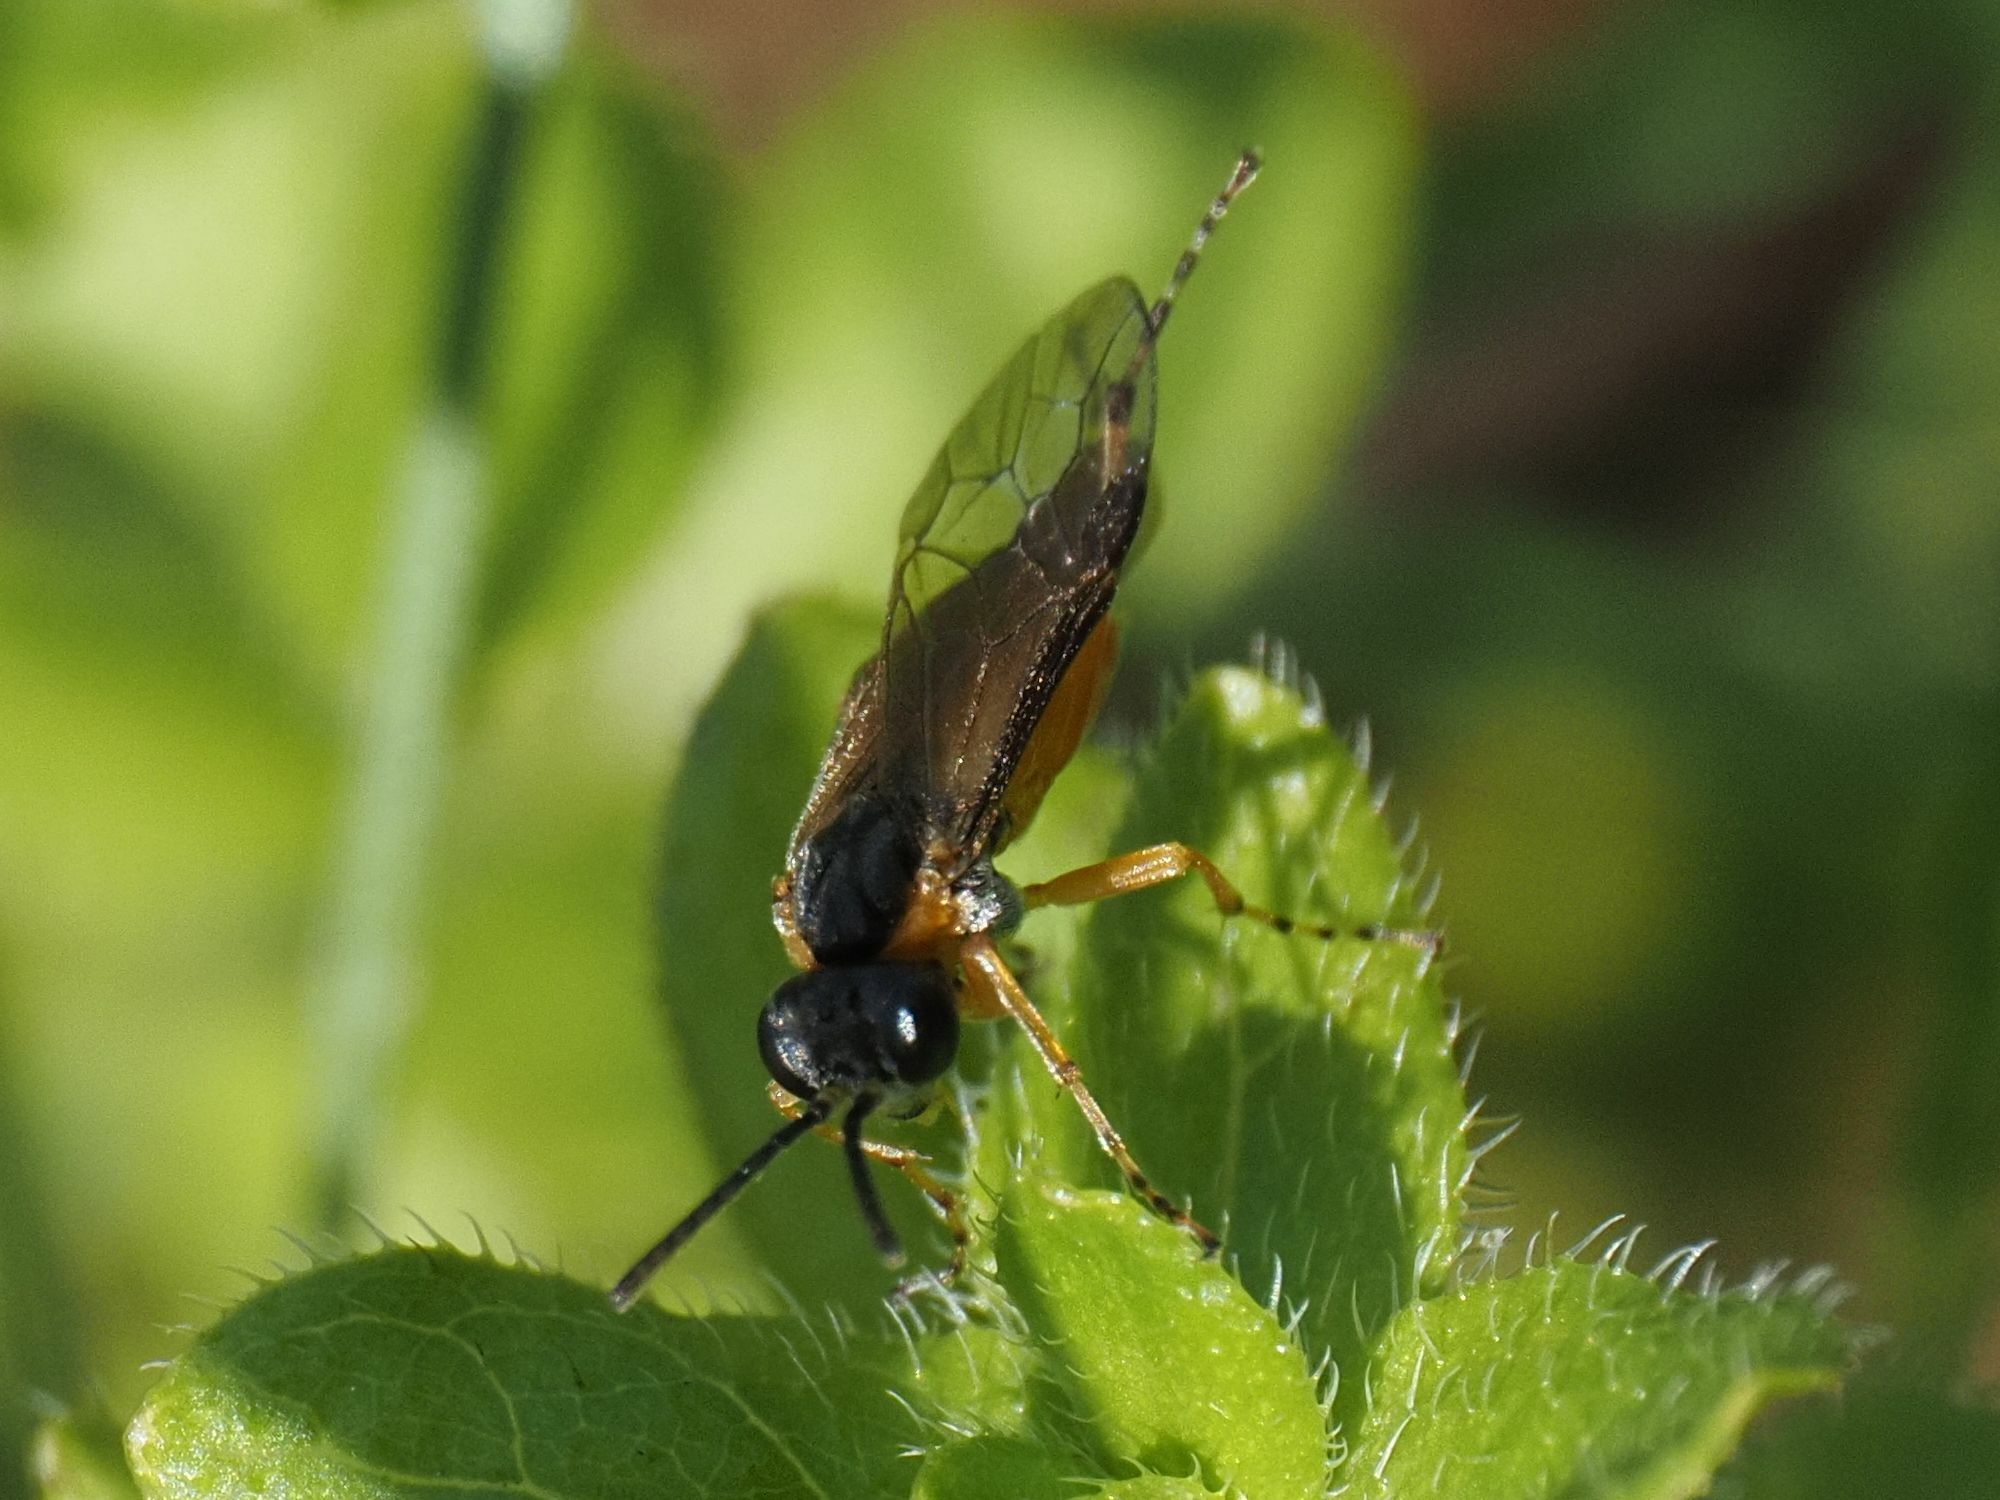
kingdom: Animalia
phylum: Arthropoda
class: Insecta
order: Hymenoptera
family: Tenthredinidae
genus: Athalia
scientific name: Athalia cordata
